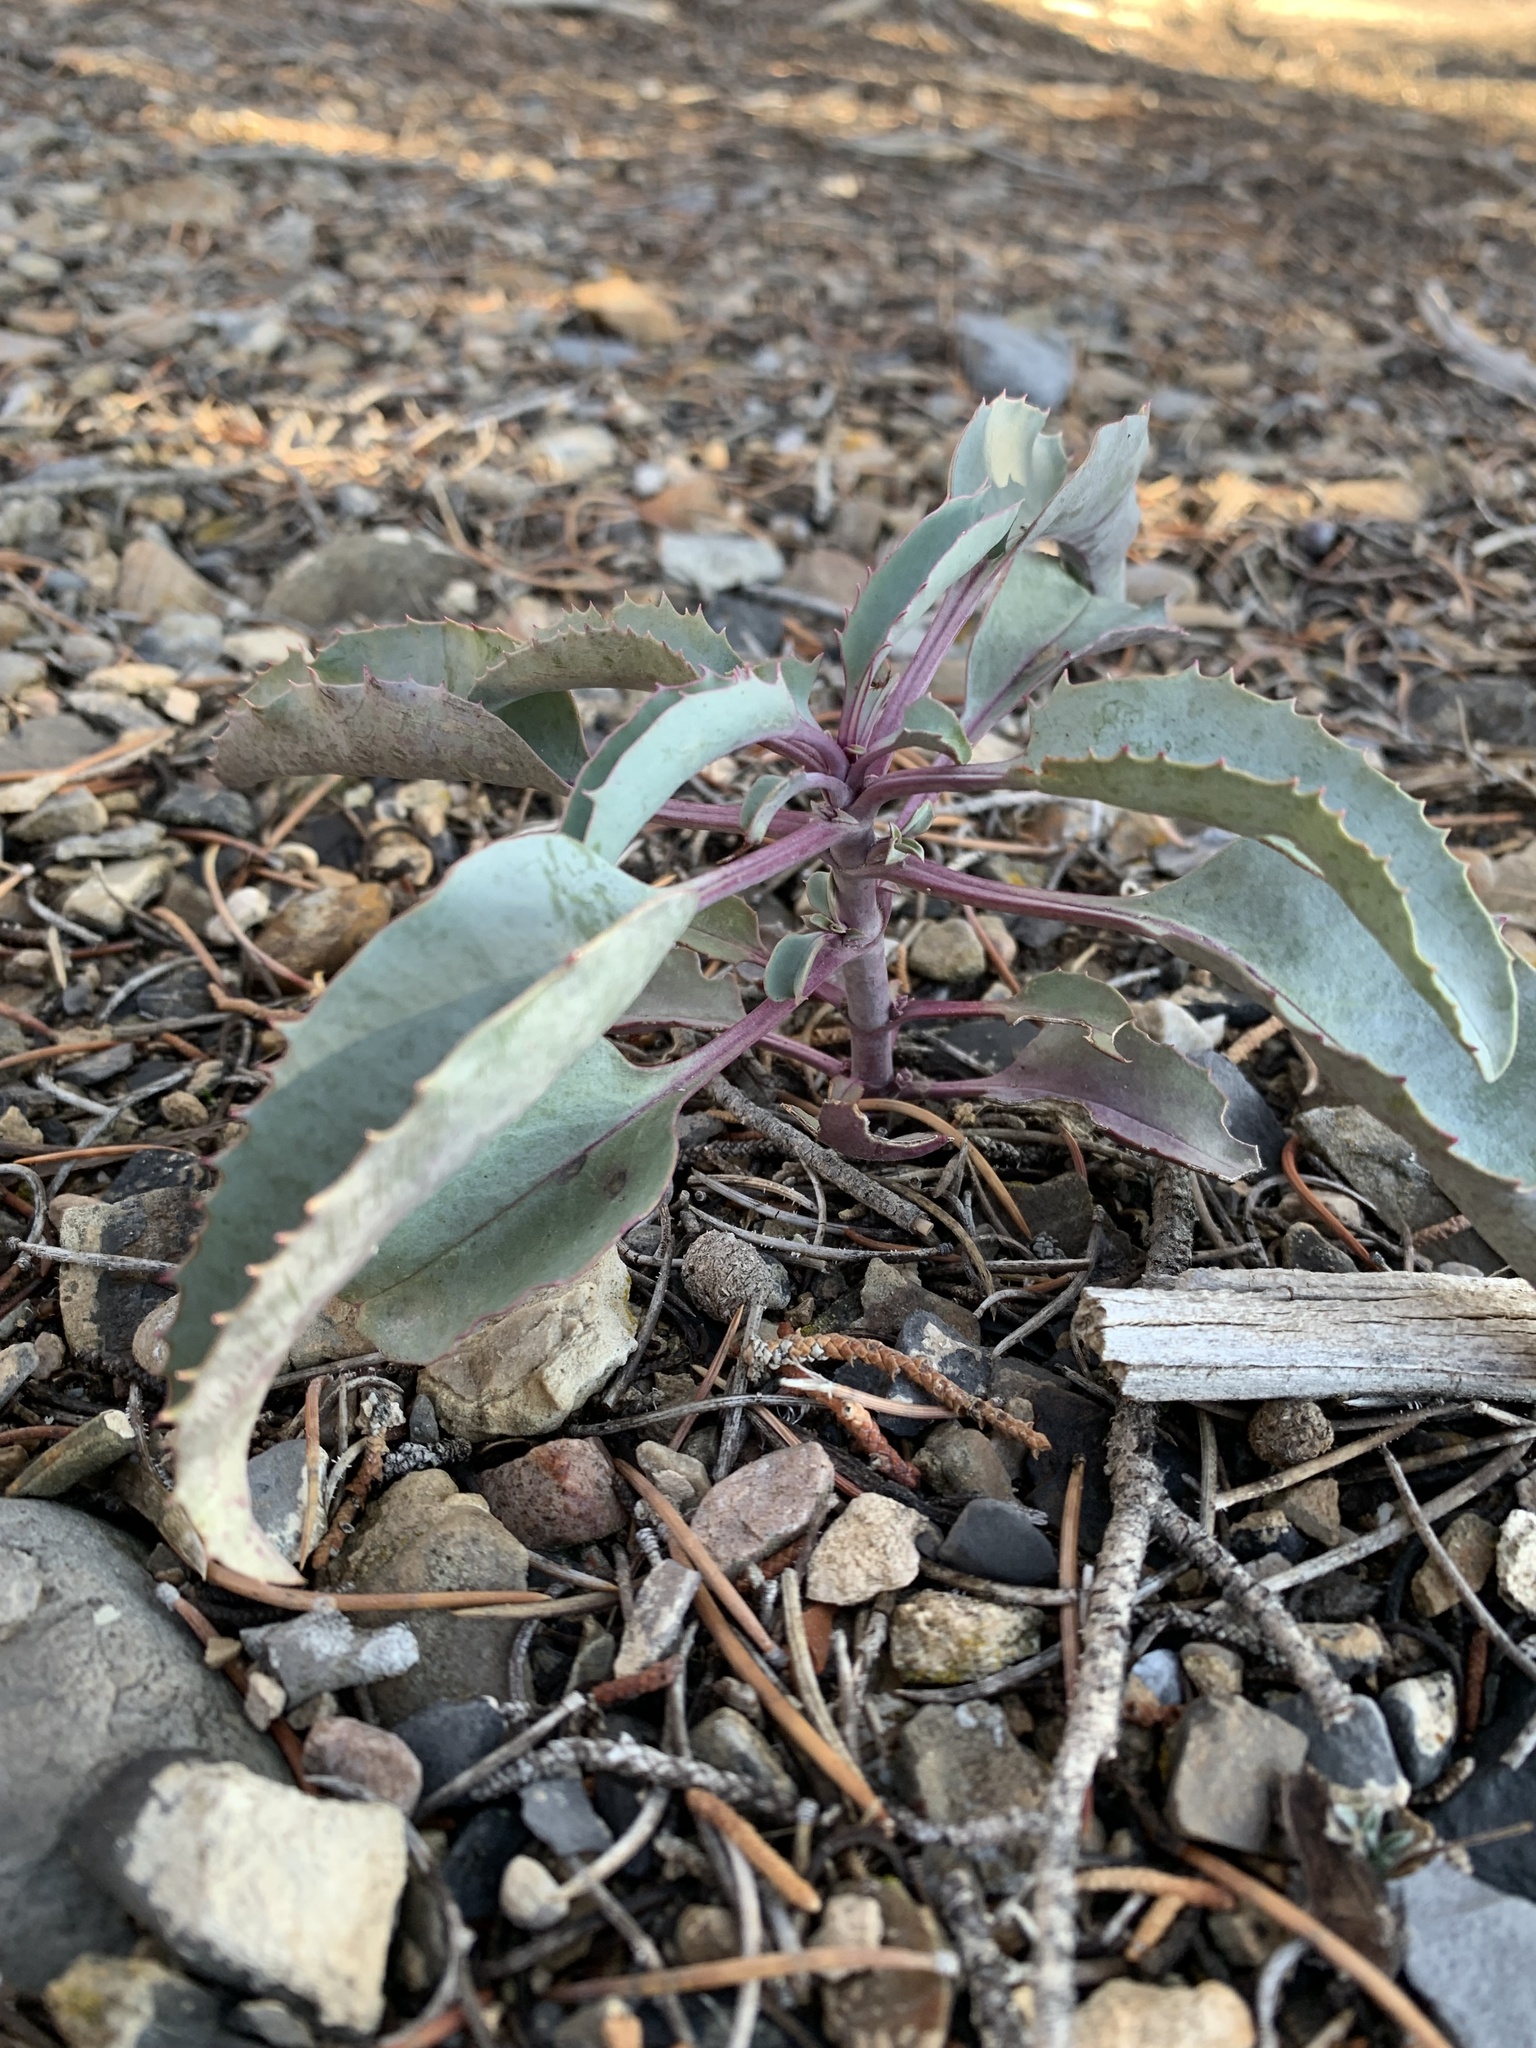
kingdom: Plantae
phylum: Tracheophyta
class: Magnoliopsida
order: Lamiales
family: Plantaginaceae
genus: Penstemon
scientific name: Penstemon palmeri
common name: Palmer penstemon
